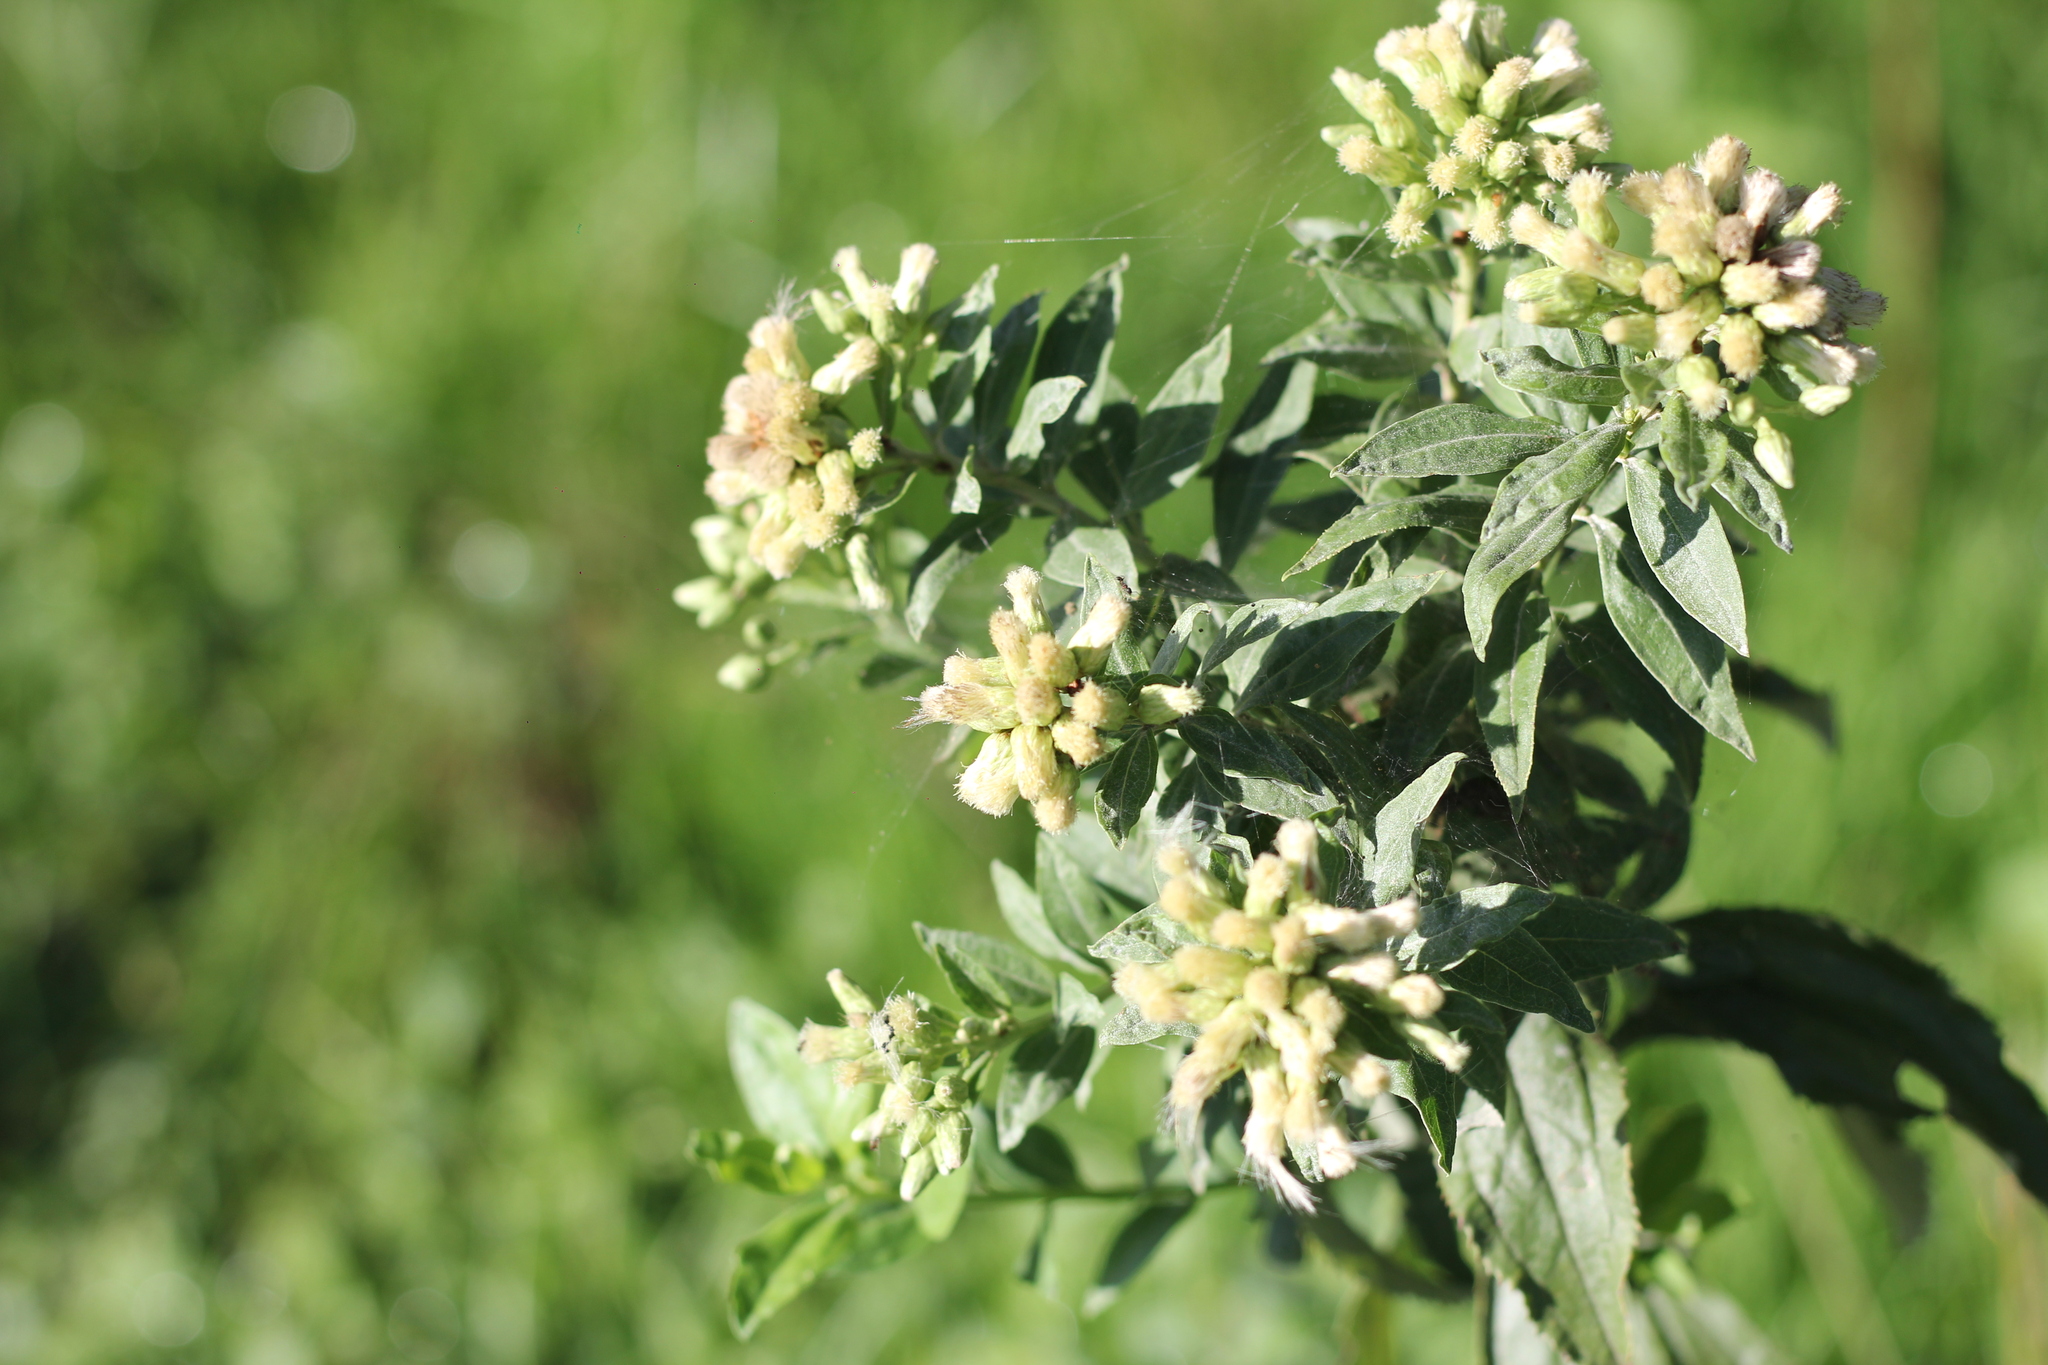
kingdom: Plantae
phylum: Tracheophyta
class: Magnoliopsida
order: Asterales
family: Asteraceae
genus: Baccharis
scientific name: Baccharis punctulata
